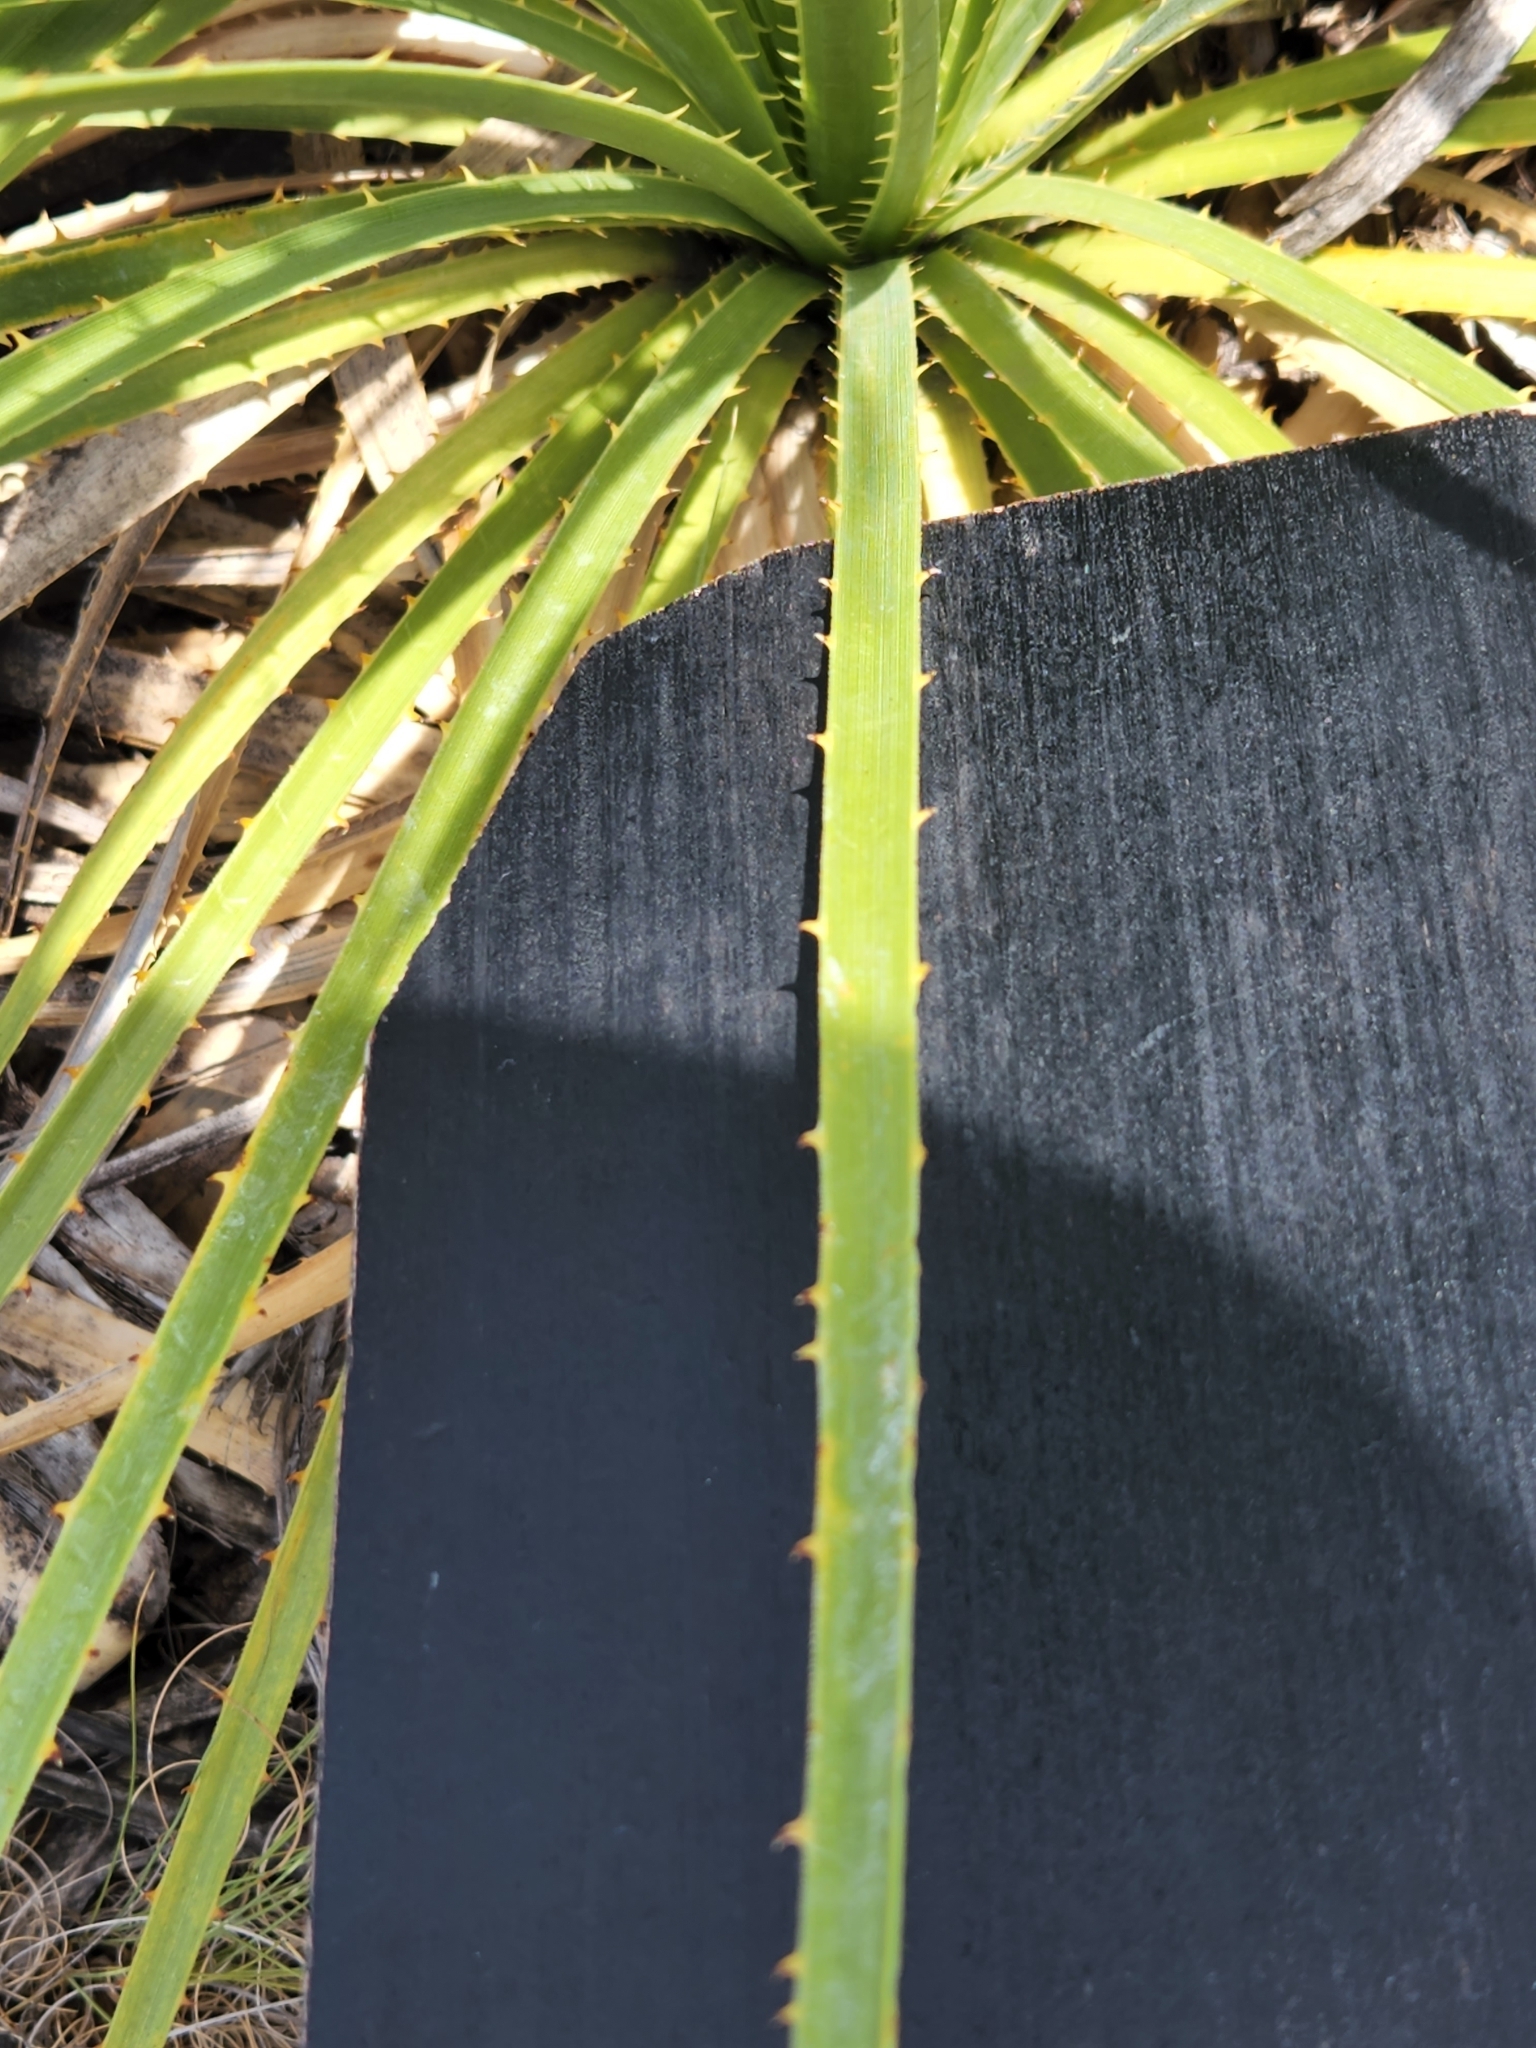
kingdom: Plantae
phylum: Tracheophyta
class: Liliopsida
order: Asparagales
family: Asparagaceae
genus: Dasylirion
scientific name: Dasylirion texanum
